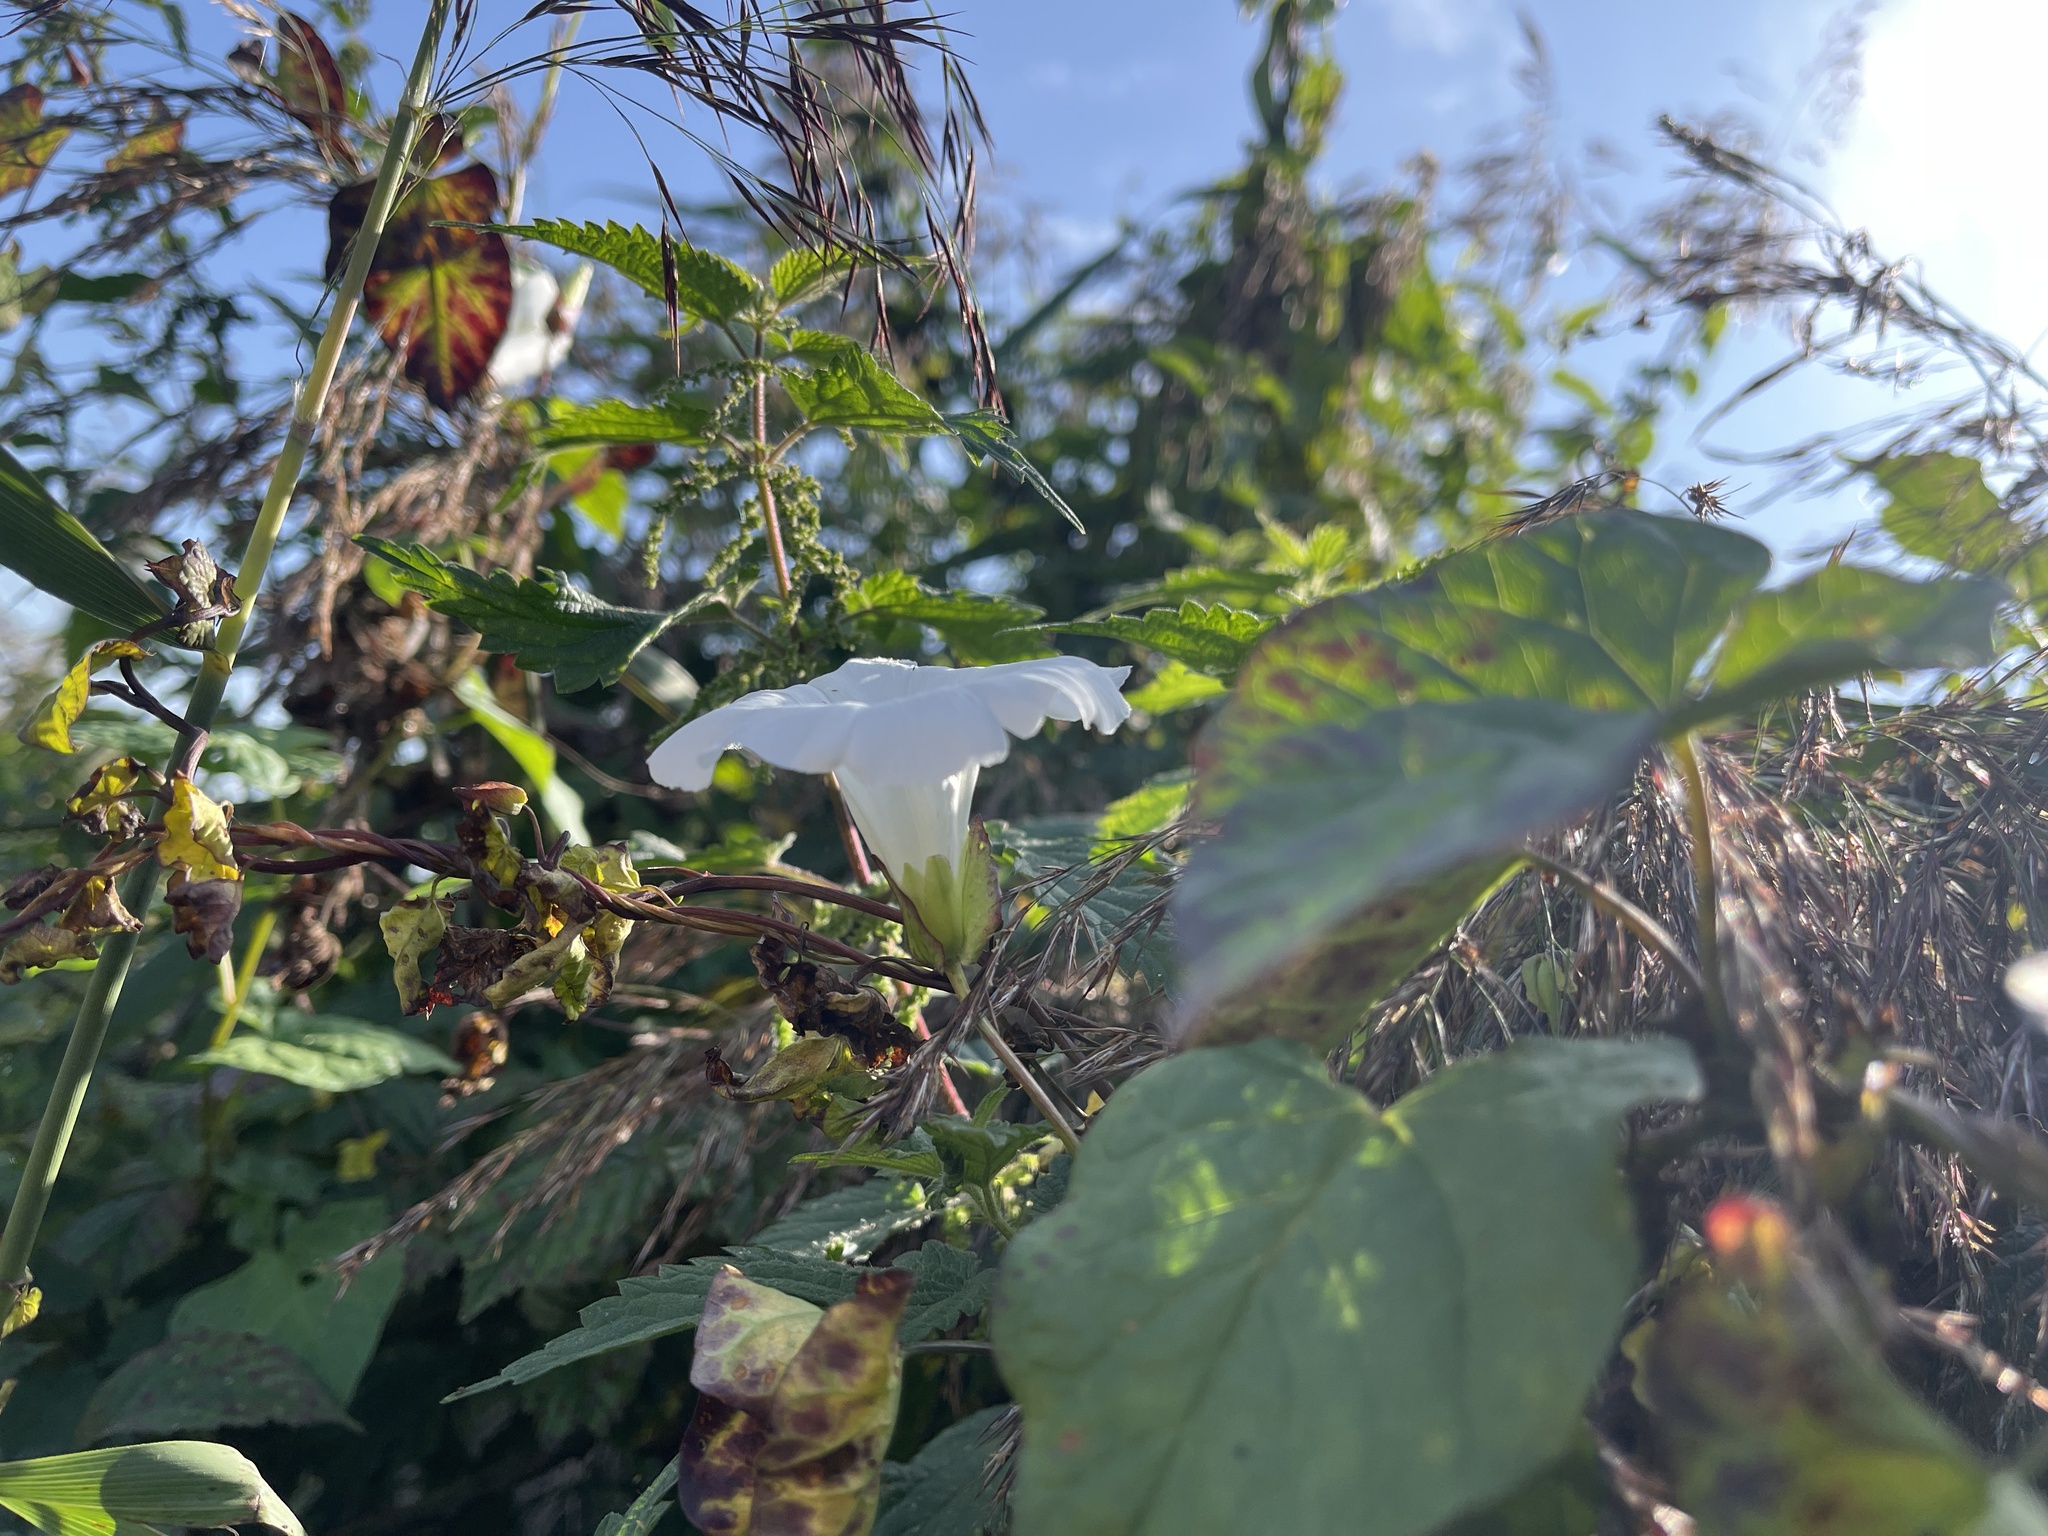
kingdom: Plantae
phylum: Tracheophyta
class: Magnoliopsida
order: Solanales
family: Convolvulaceae
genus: Calystegia
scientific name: Calystegia sepium
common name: Hedge bindweed
